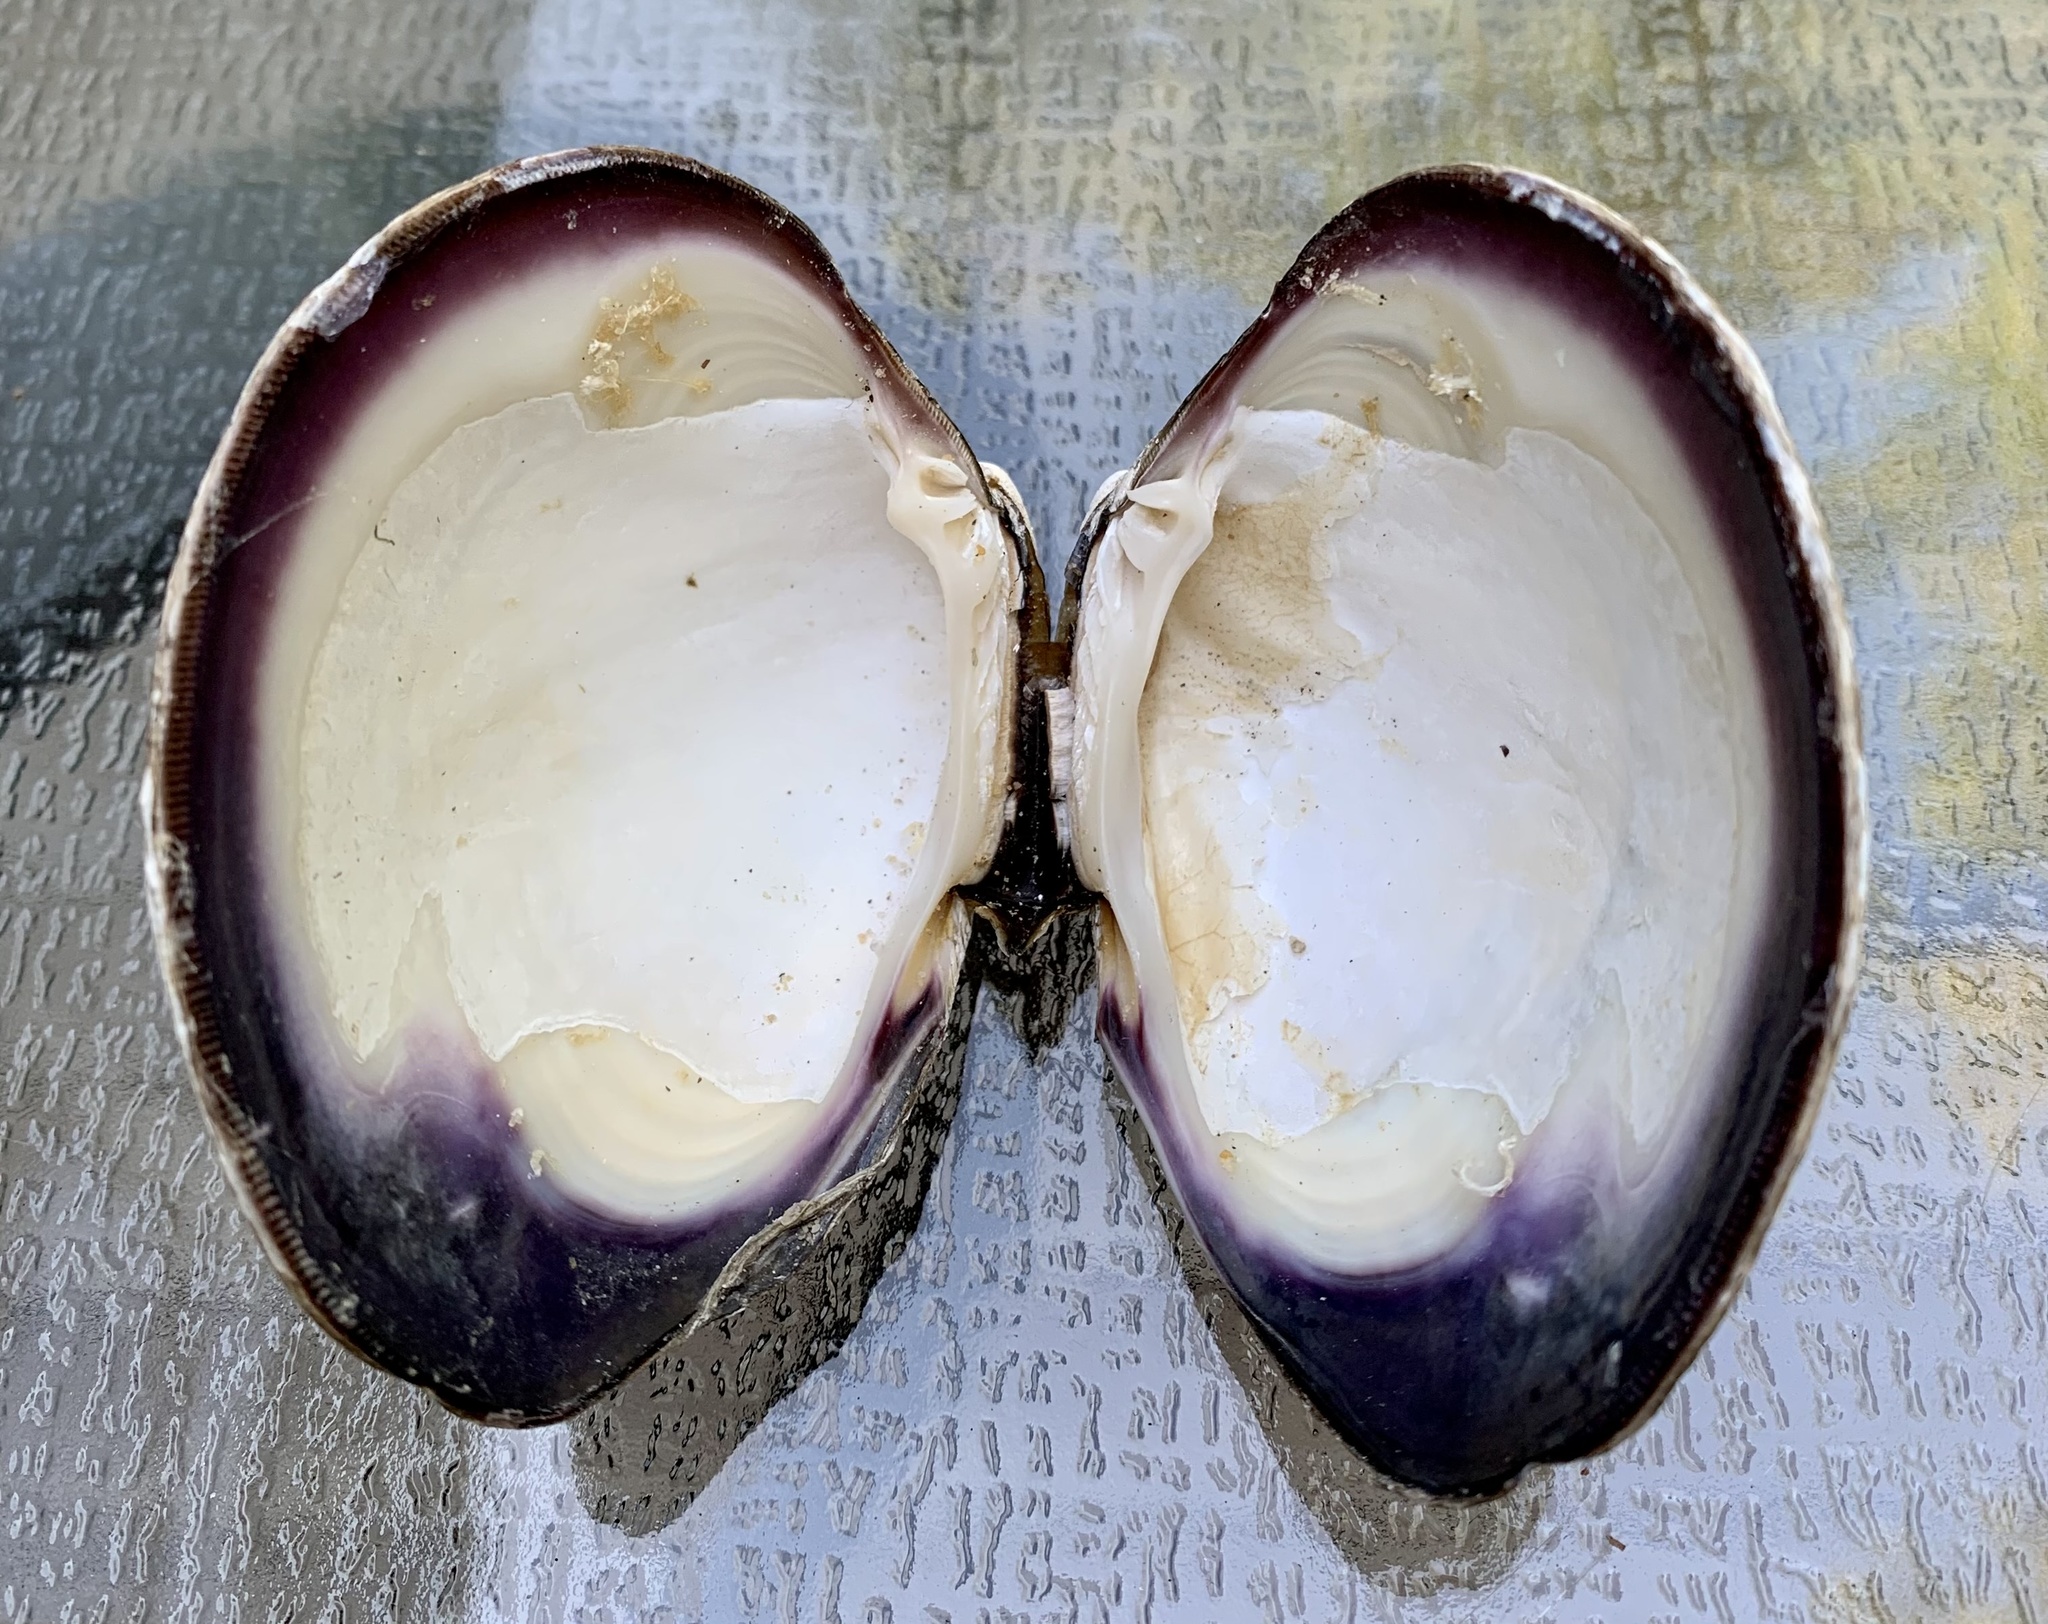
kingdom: Animalia
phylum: Mollusca
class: Bivalvia
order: Venerida
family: Veneridae
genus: Mercenaria
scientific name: Mercenaria mercenaria
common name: American hard-shelled clam
